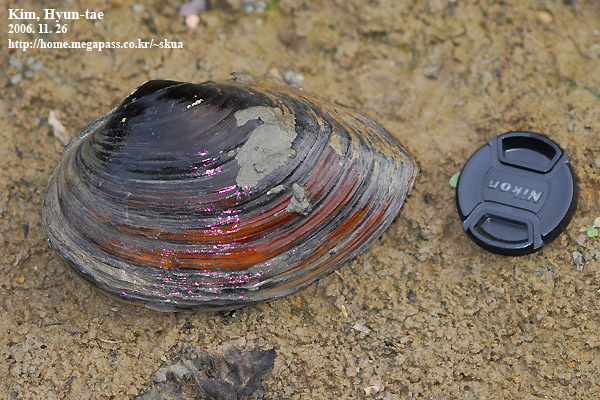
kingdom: Animalia
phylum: Mollusca
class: Bivalvia
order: Unionida
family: Unionidae
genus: Sinanodonta
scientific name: Sinanodonta schrenkii
